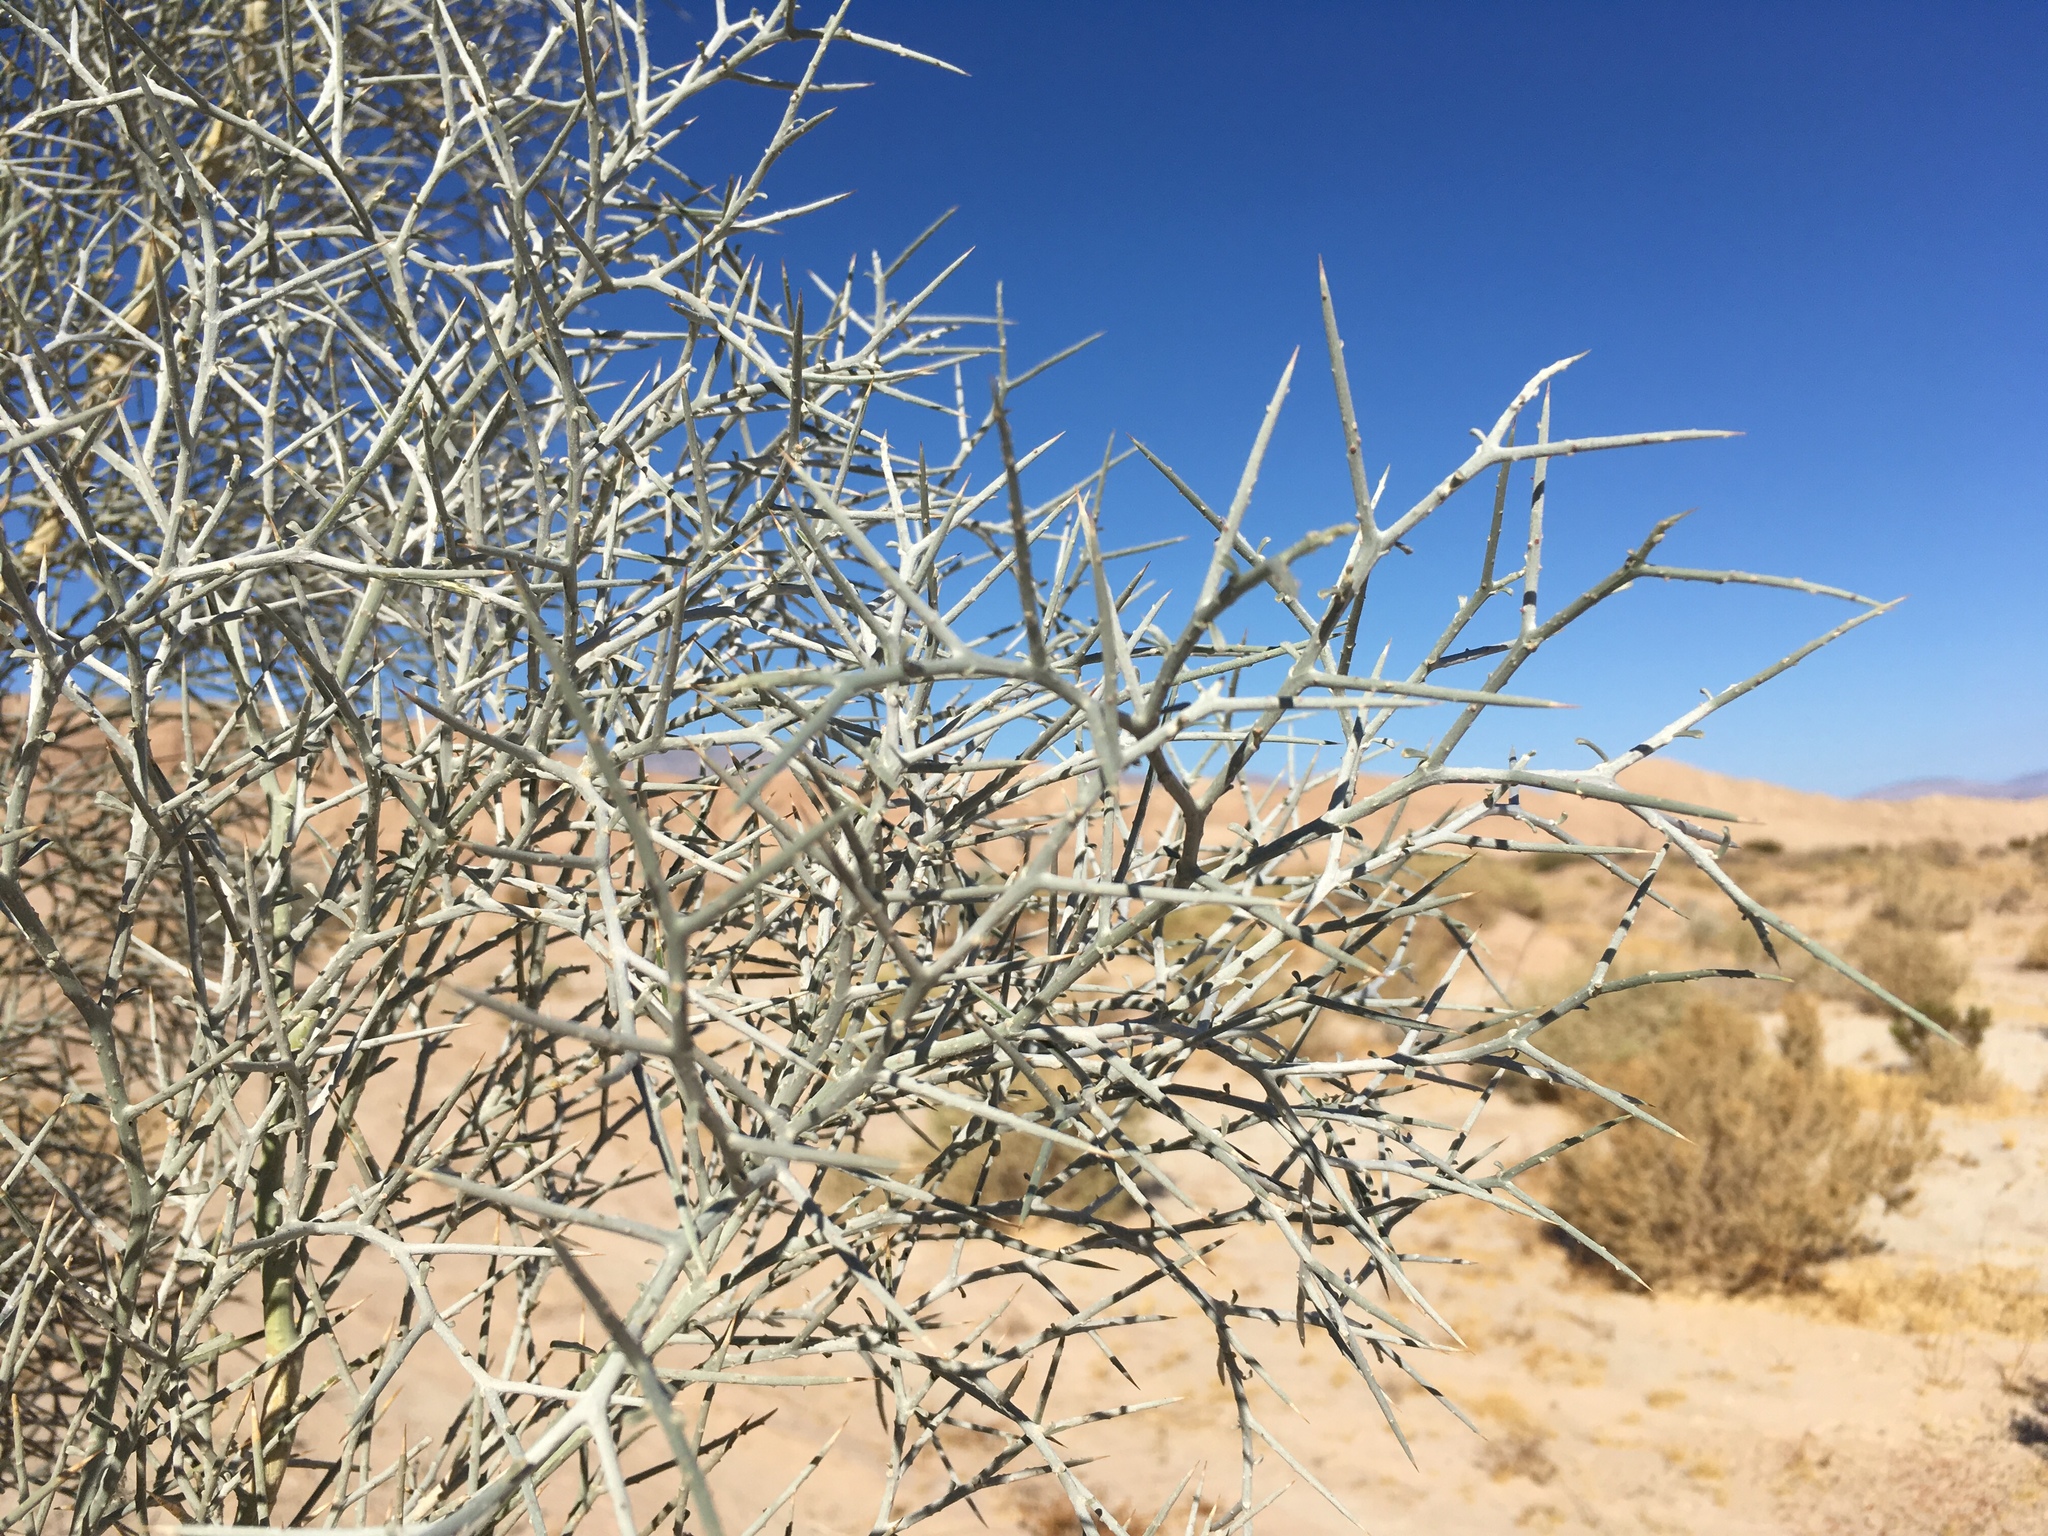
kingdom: Plantae
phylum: Tracheophyta
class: Magnoliopsida
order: Fabales
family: Fabaceae
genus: Psorothamnus
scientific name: Psorothamnus spinosus
